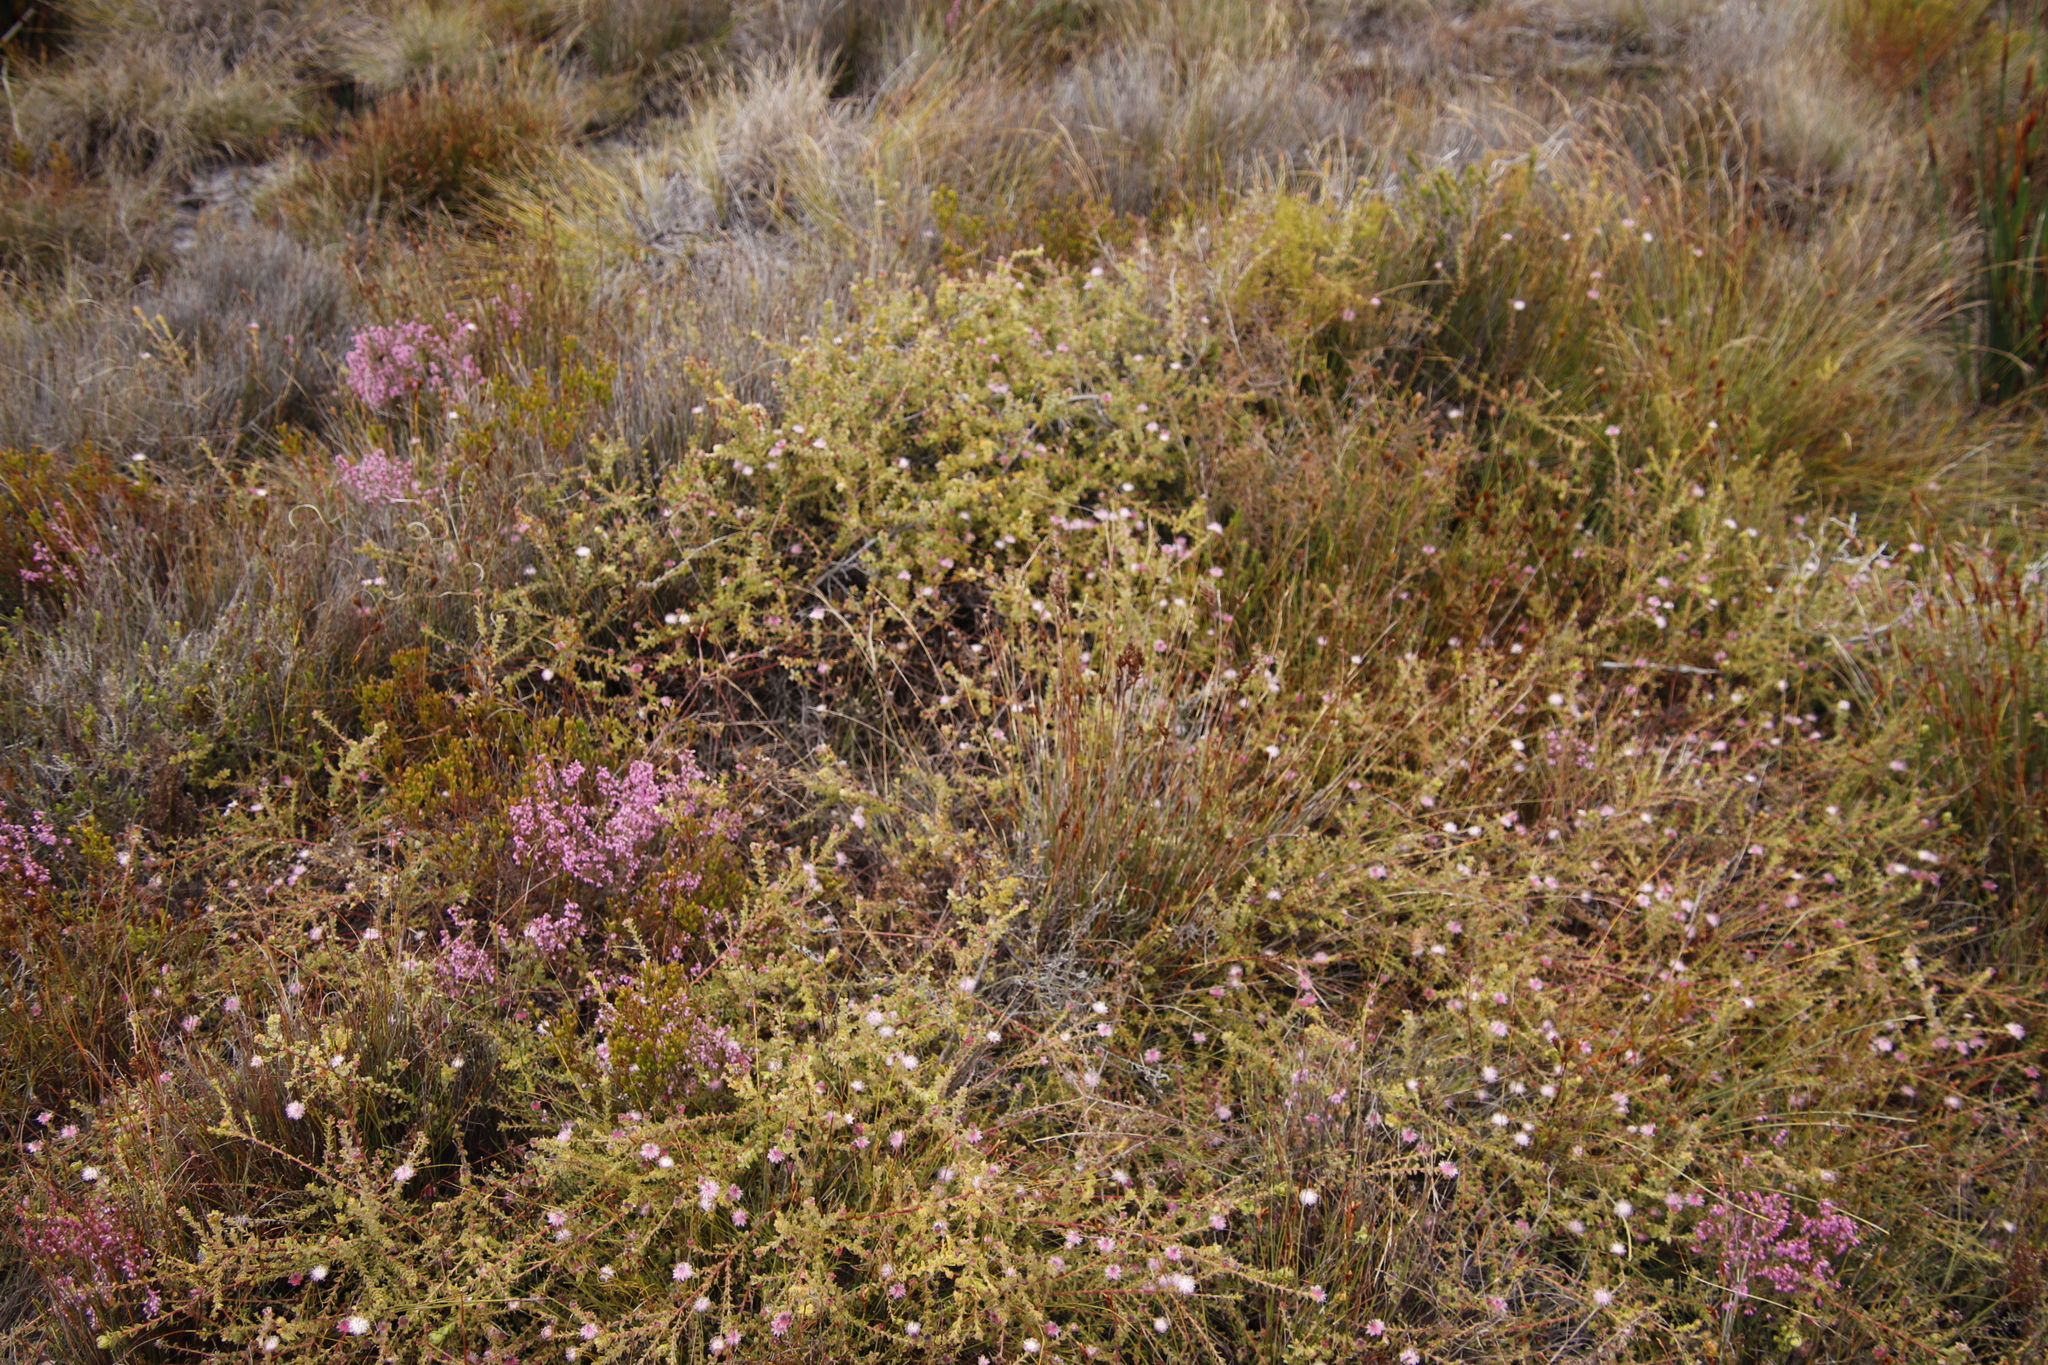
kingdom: Plantae
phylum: Tracheophyta
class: Magnoliopsida
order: Proteales
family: Proteaceae
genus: Diastella
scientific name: Diastella divaricata
